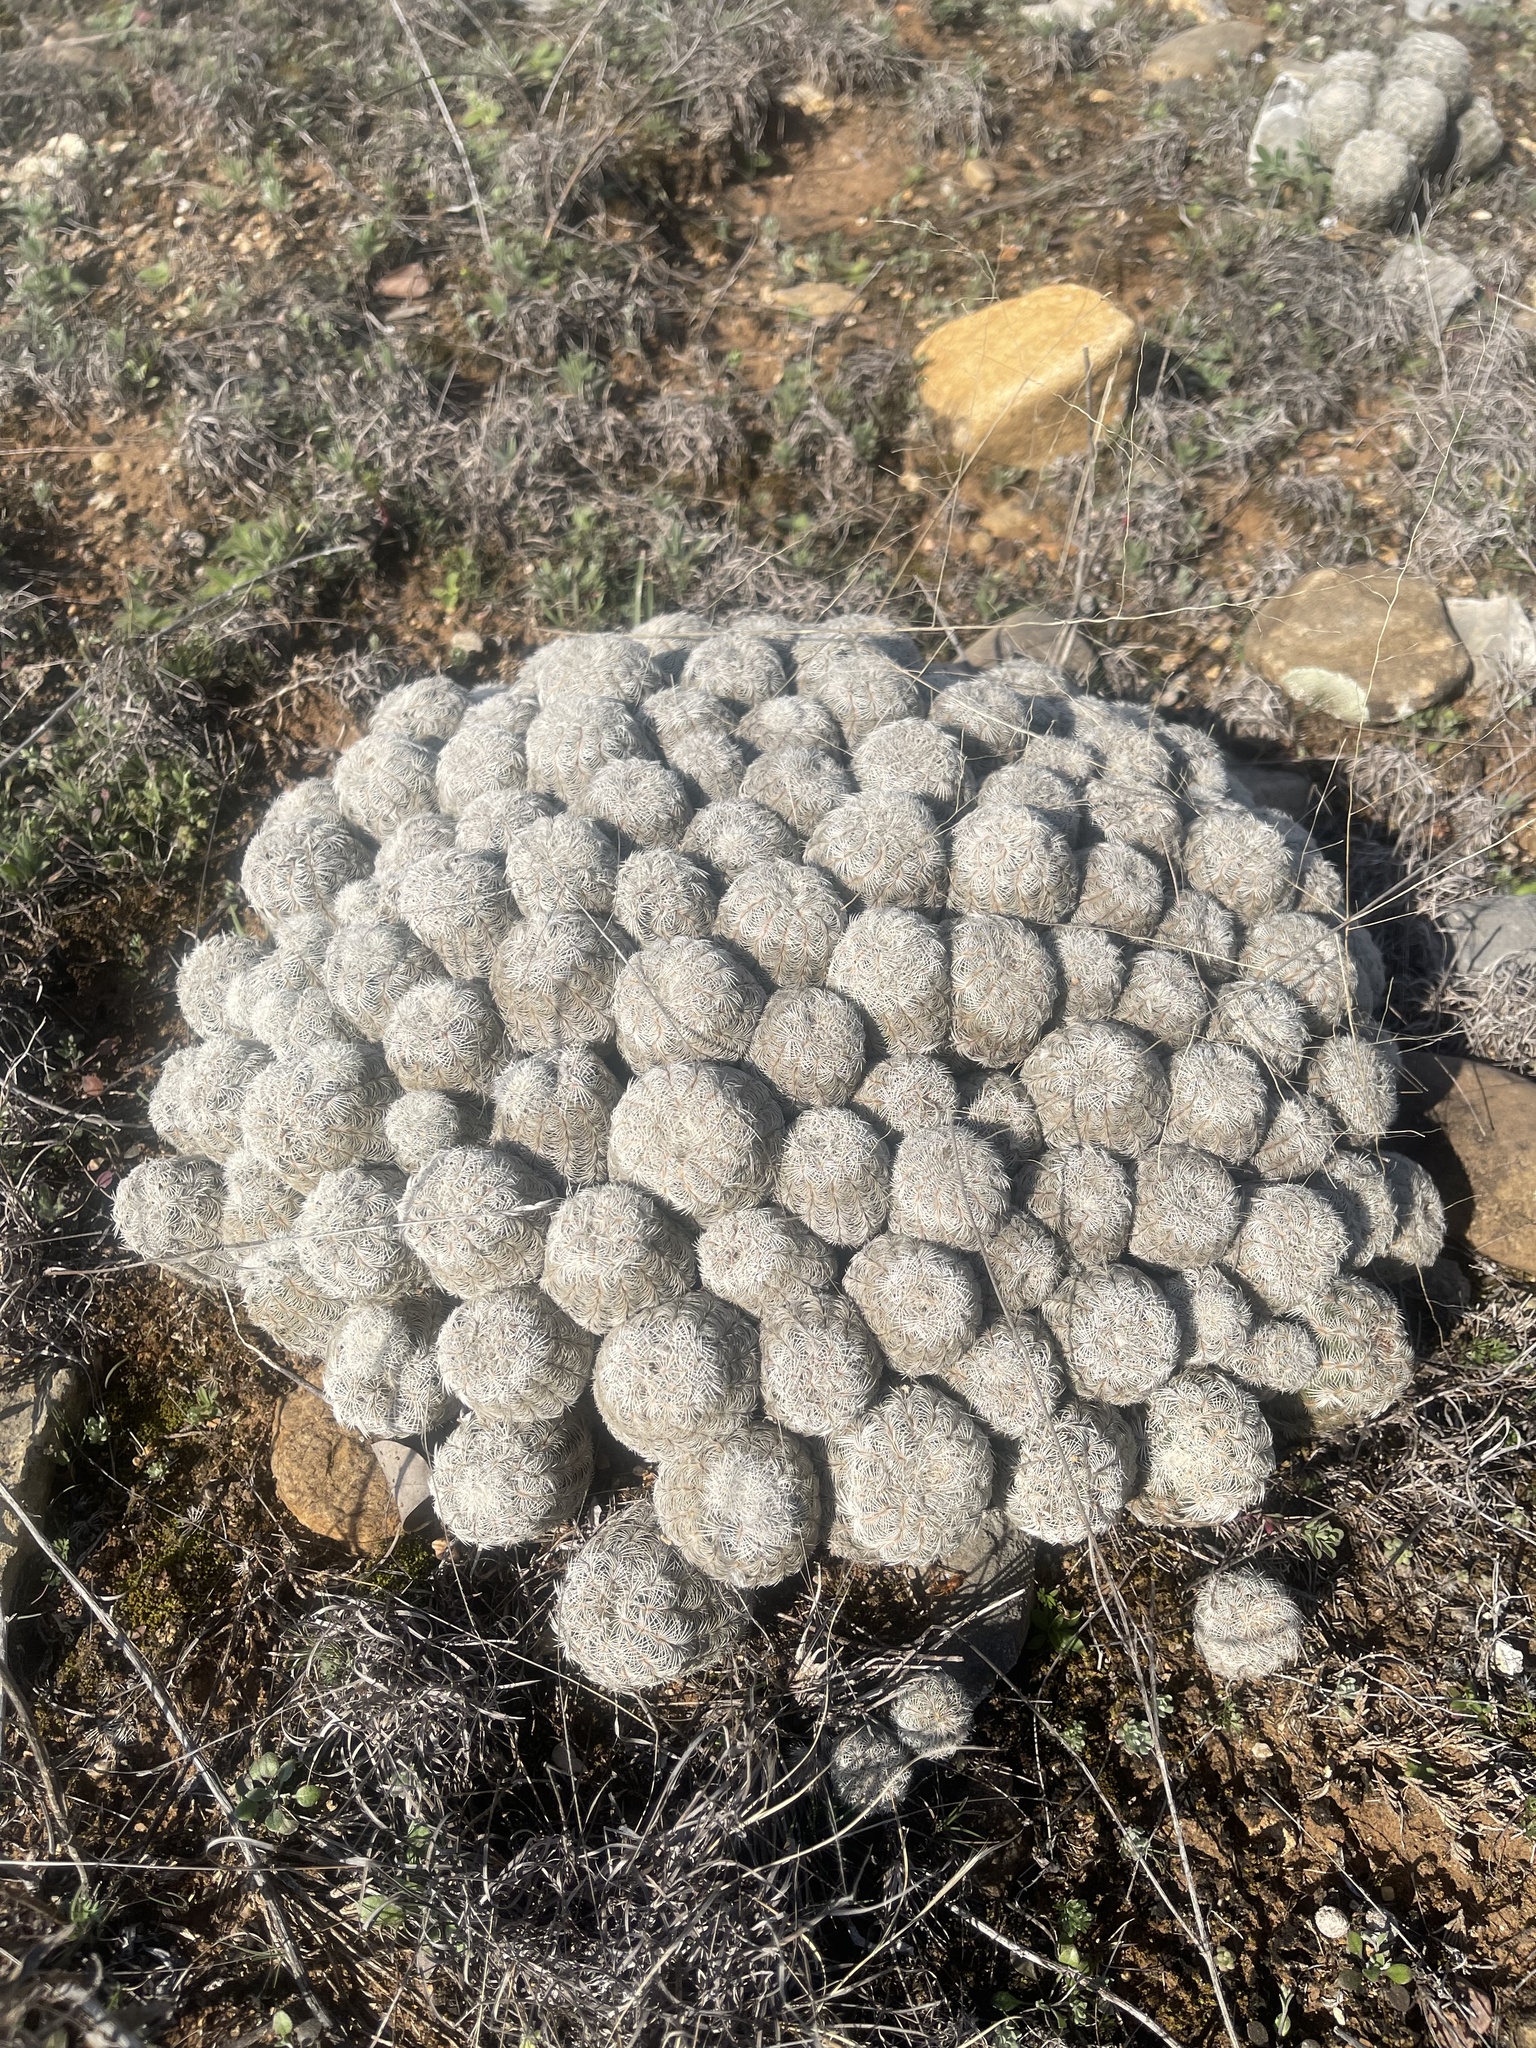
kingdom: Plantae
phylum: Tracheophyta
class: Magnoliopsida
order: Caryophyllales
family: Cactaceae
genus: Echinocereus
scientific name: Echinocereus reichenbachii
